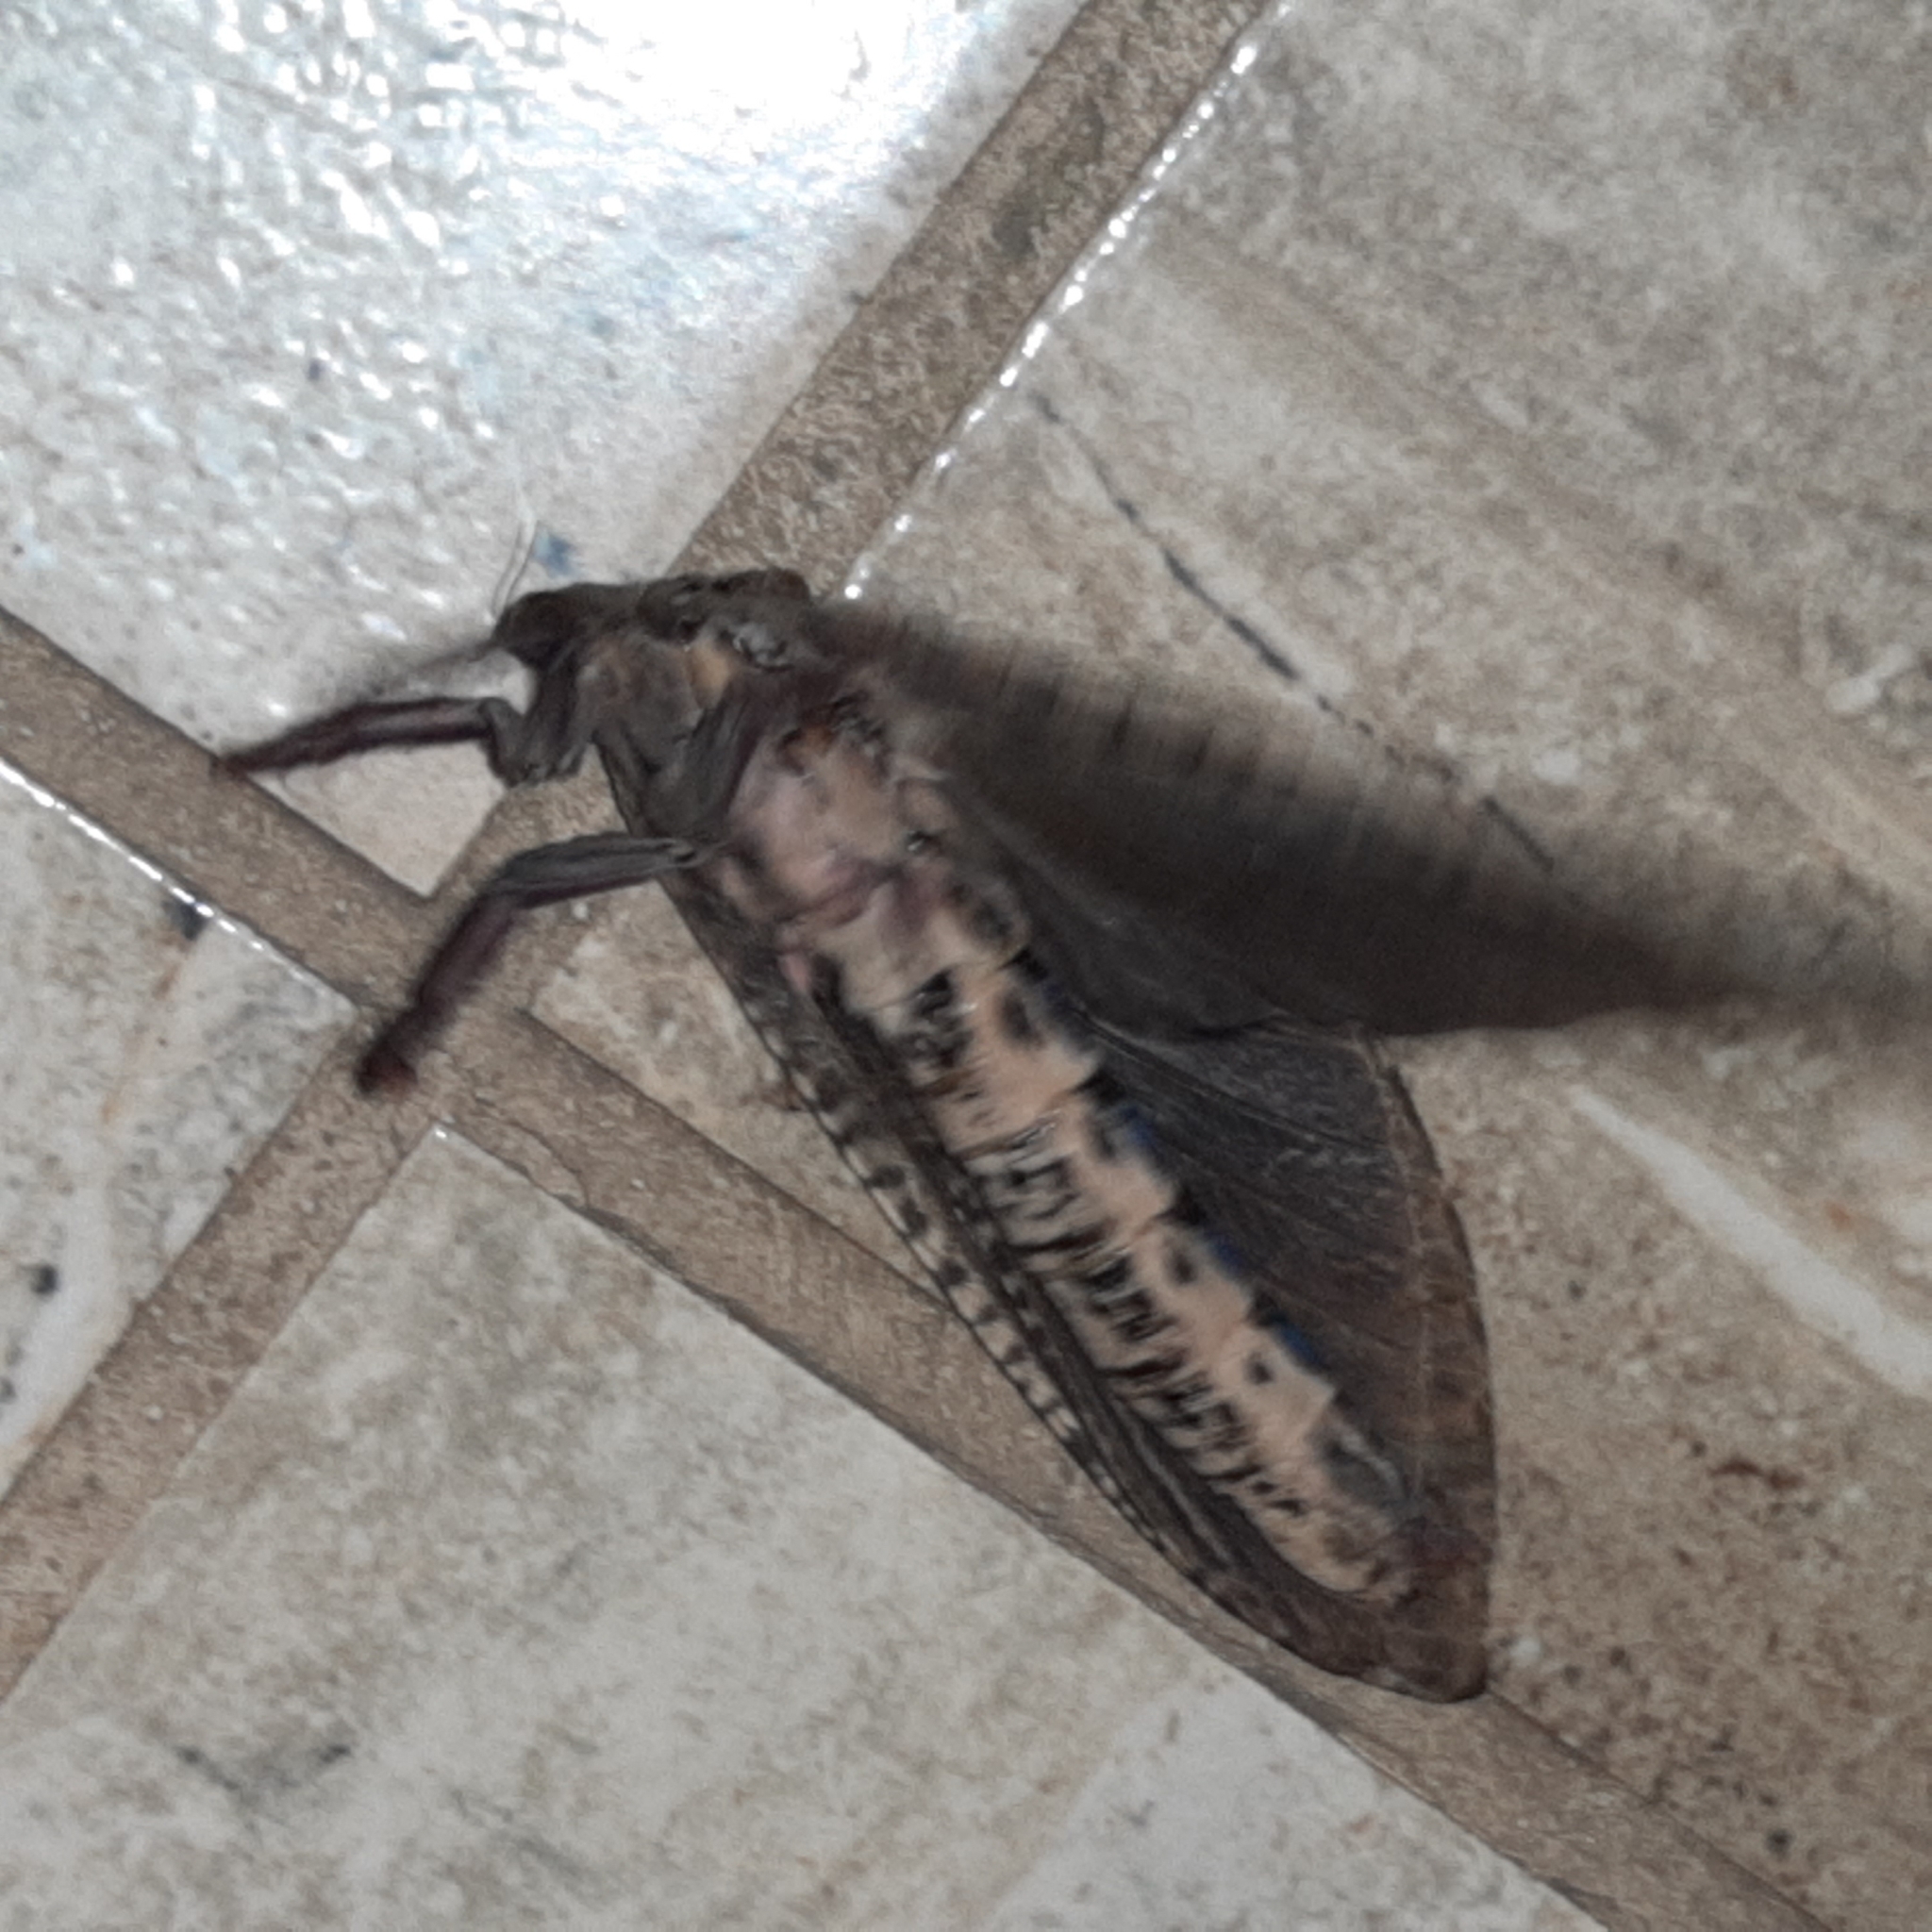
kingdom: Animalia
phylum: Arthropoda
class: Insecta
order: Lepidoptera
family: Hepialidae
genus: Phassus
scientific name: Phassus n-signatus
